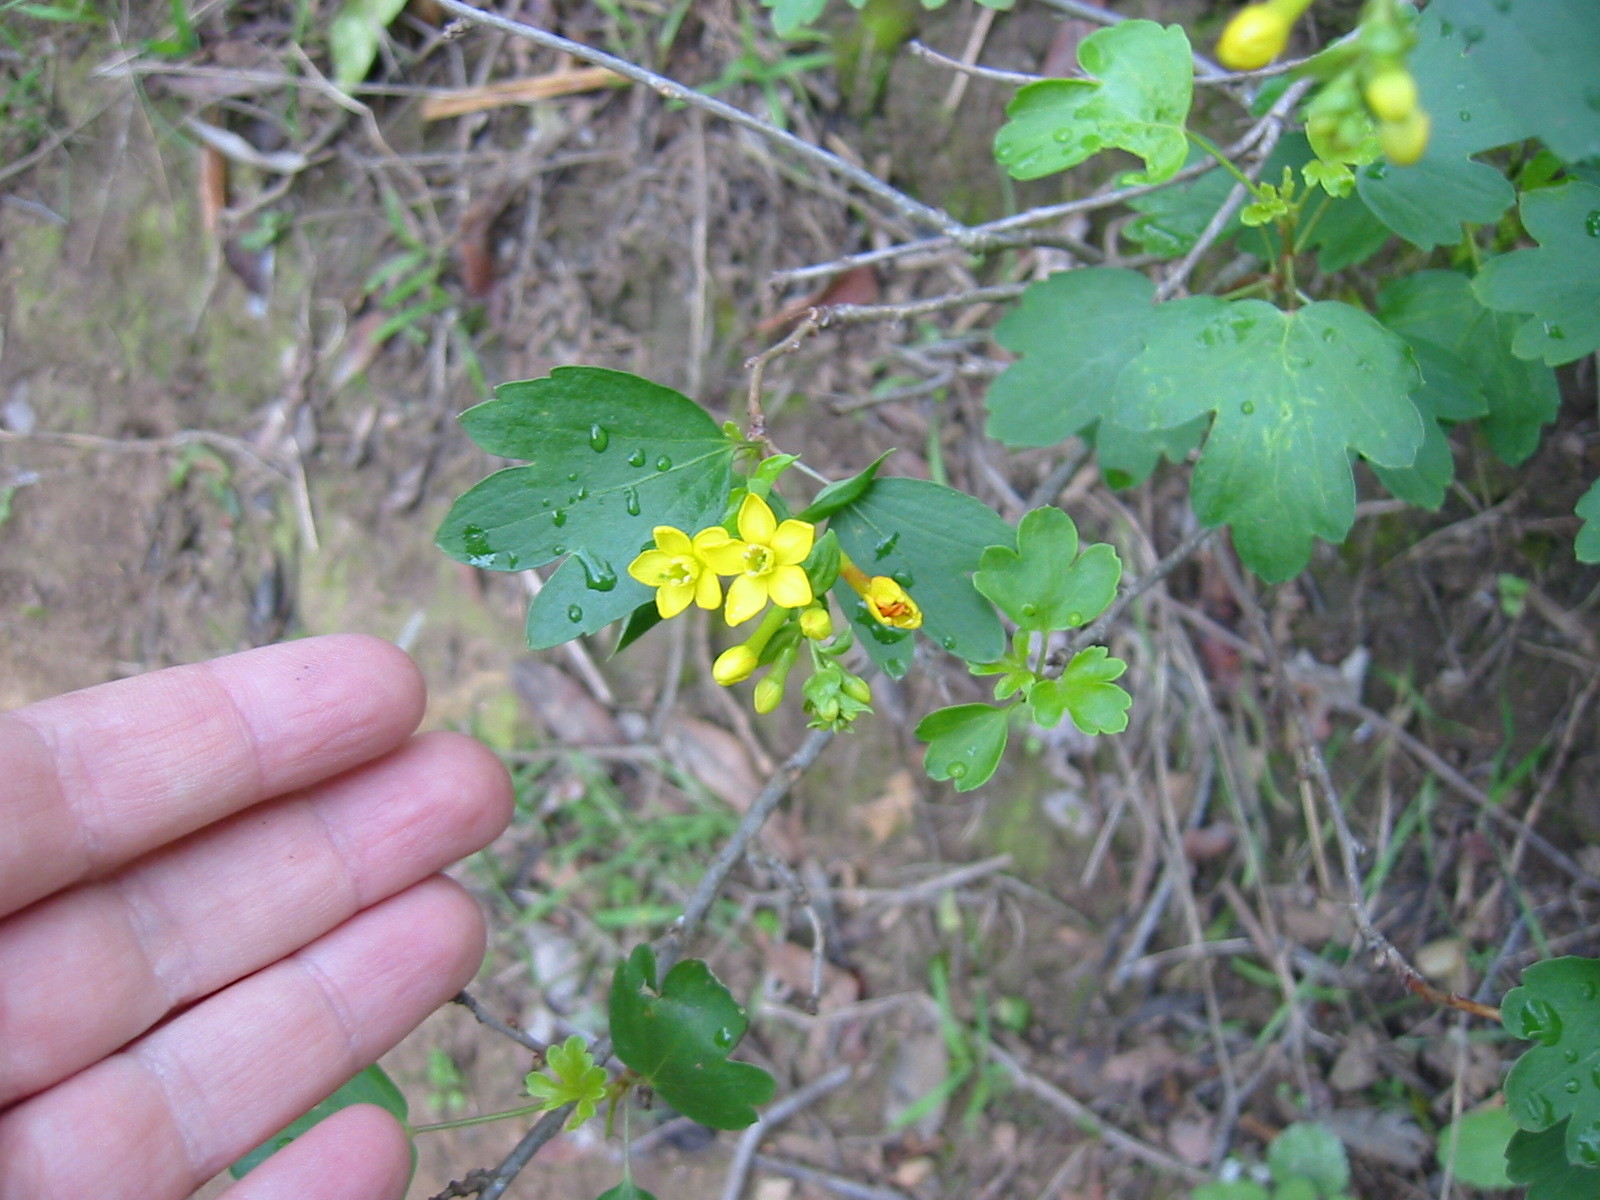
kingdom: Plantae
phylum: Tracheophyta
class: Magnoliopsida
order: Saxifragales
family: Grossulariaceae
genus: Ribes
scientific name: Ribes aureum
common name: Golden currant
